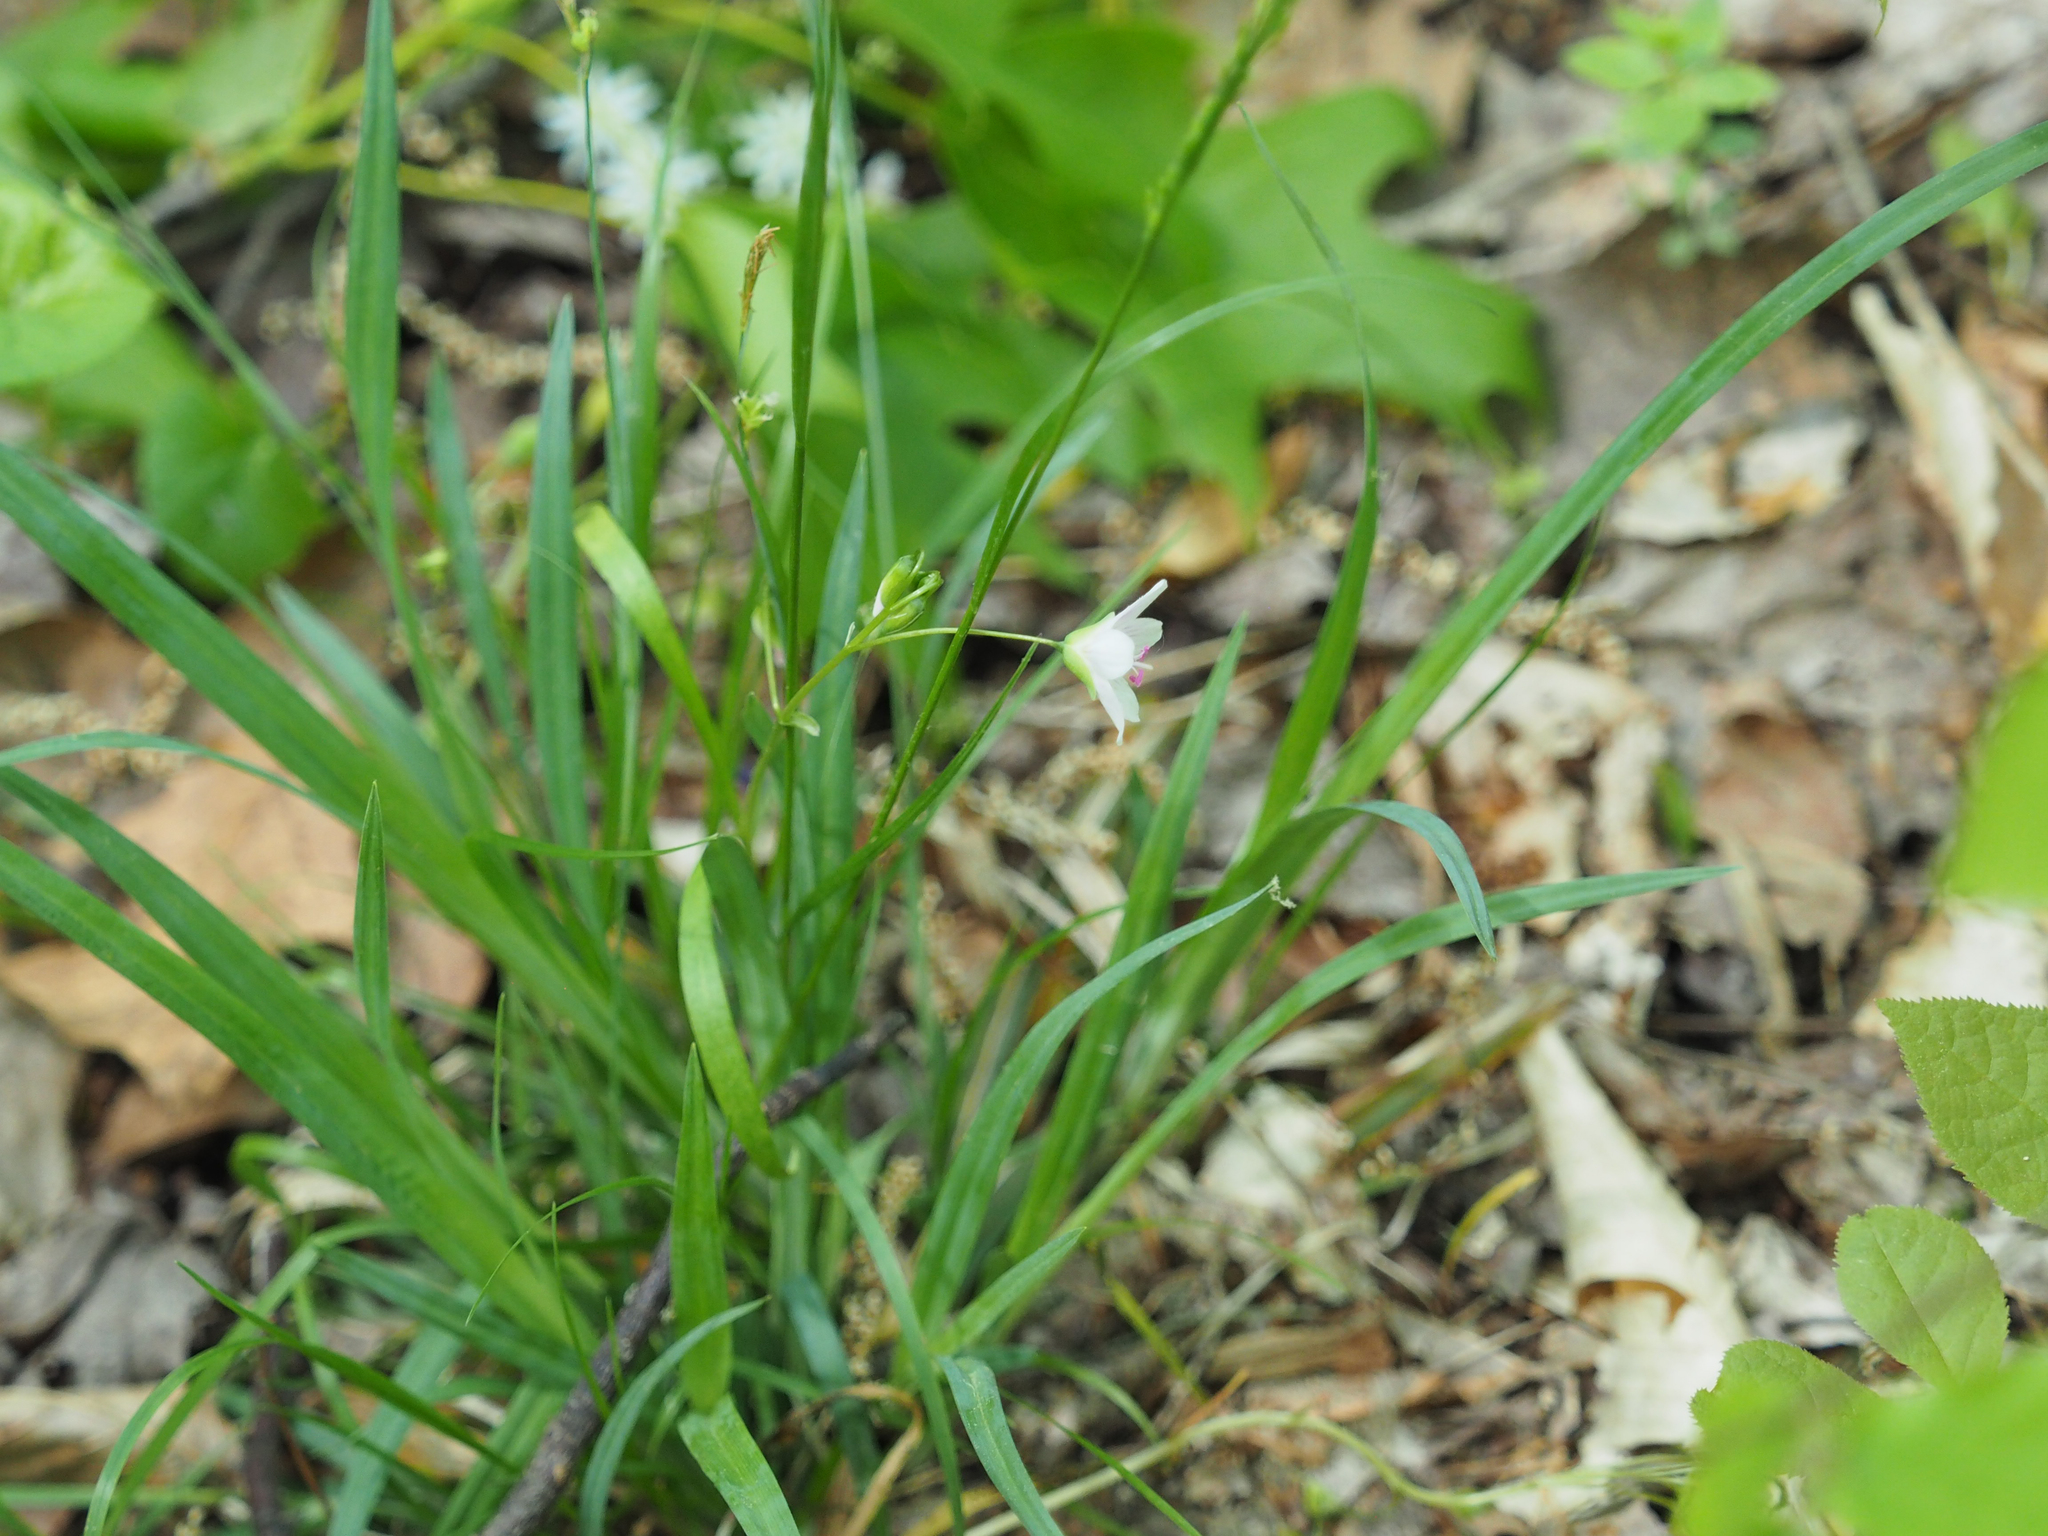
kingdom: Plantae
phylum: Tracheophyta
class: Magnoliopsida
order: Caryophyllales
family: Montiaceae
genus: Claytonia
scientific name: Claytonia virginica
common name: Virginia springbeauty
